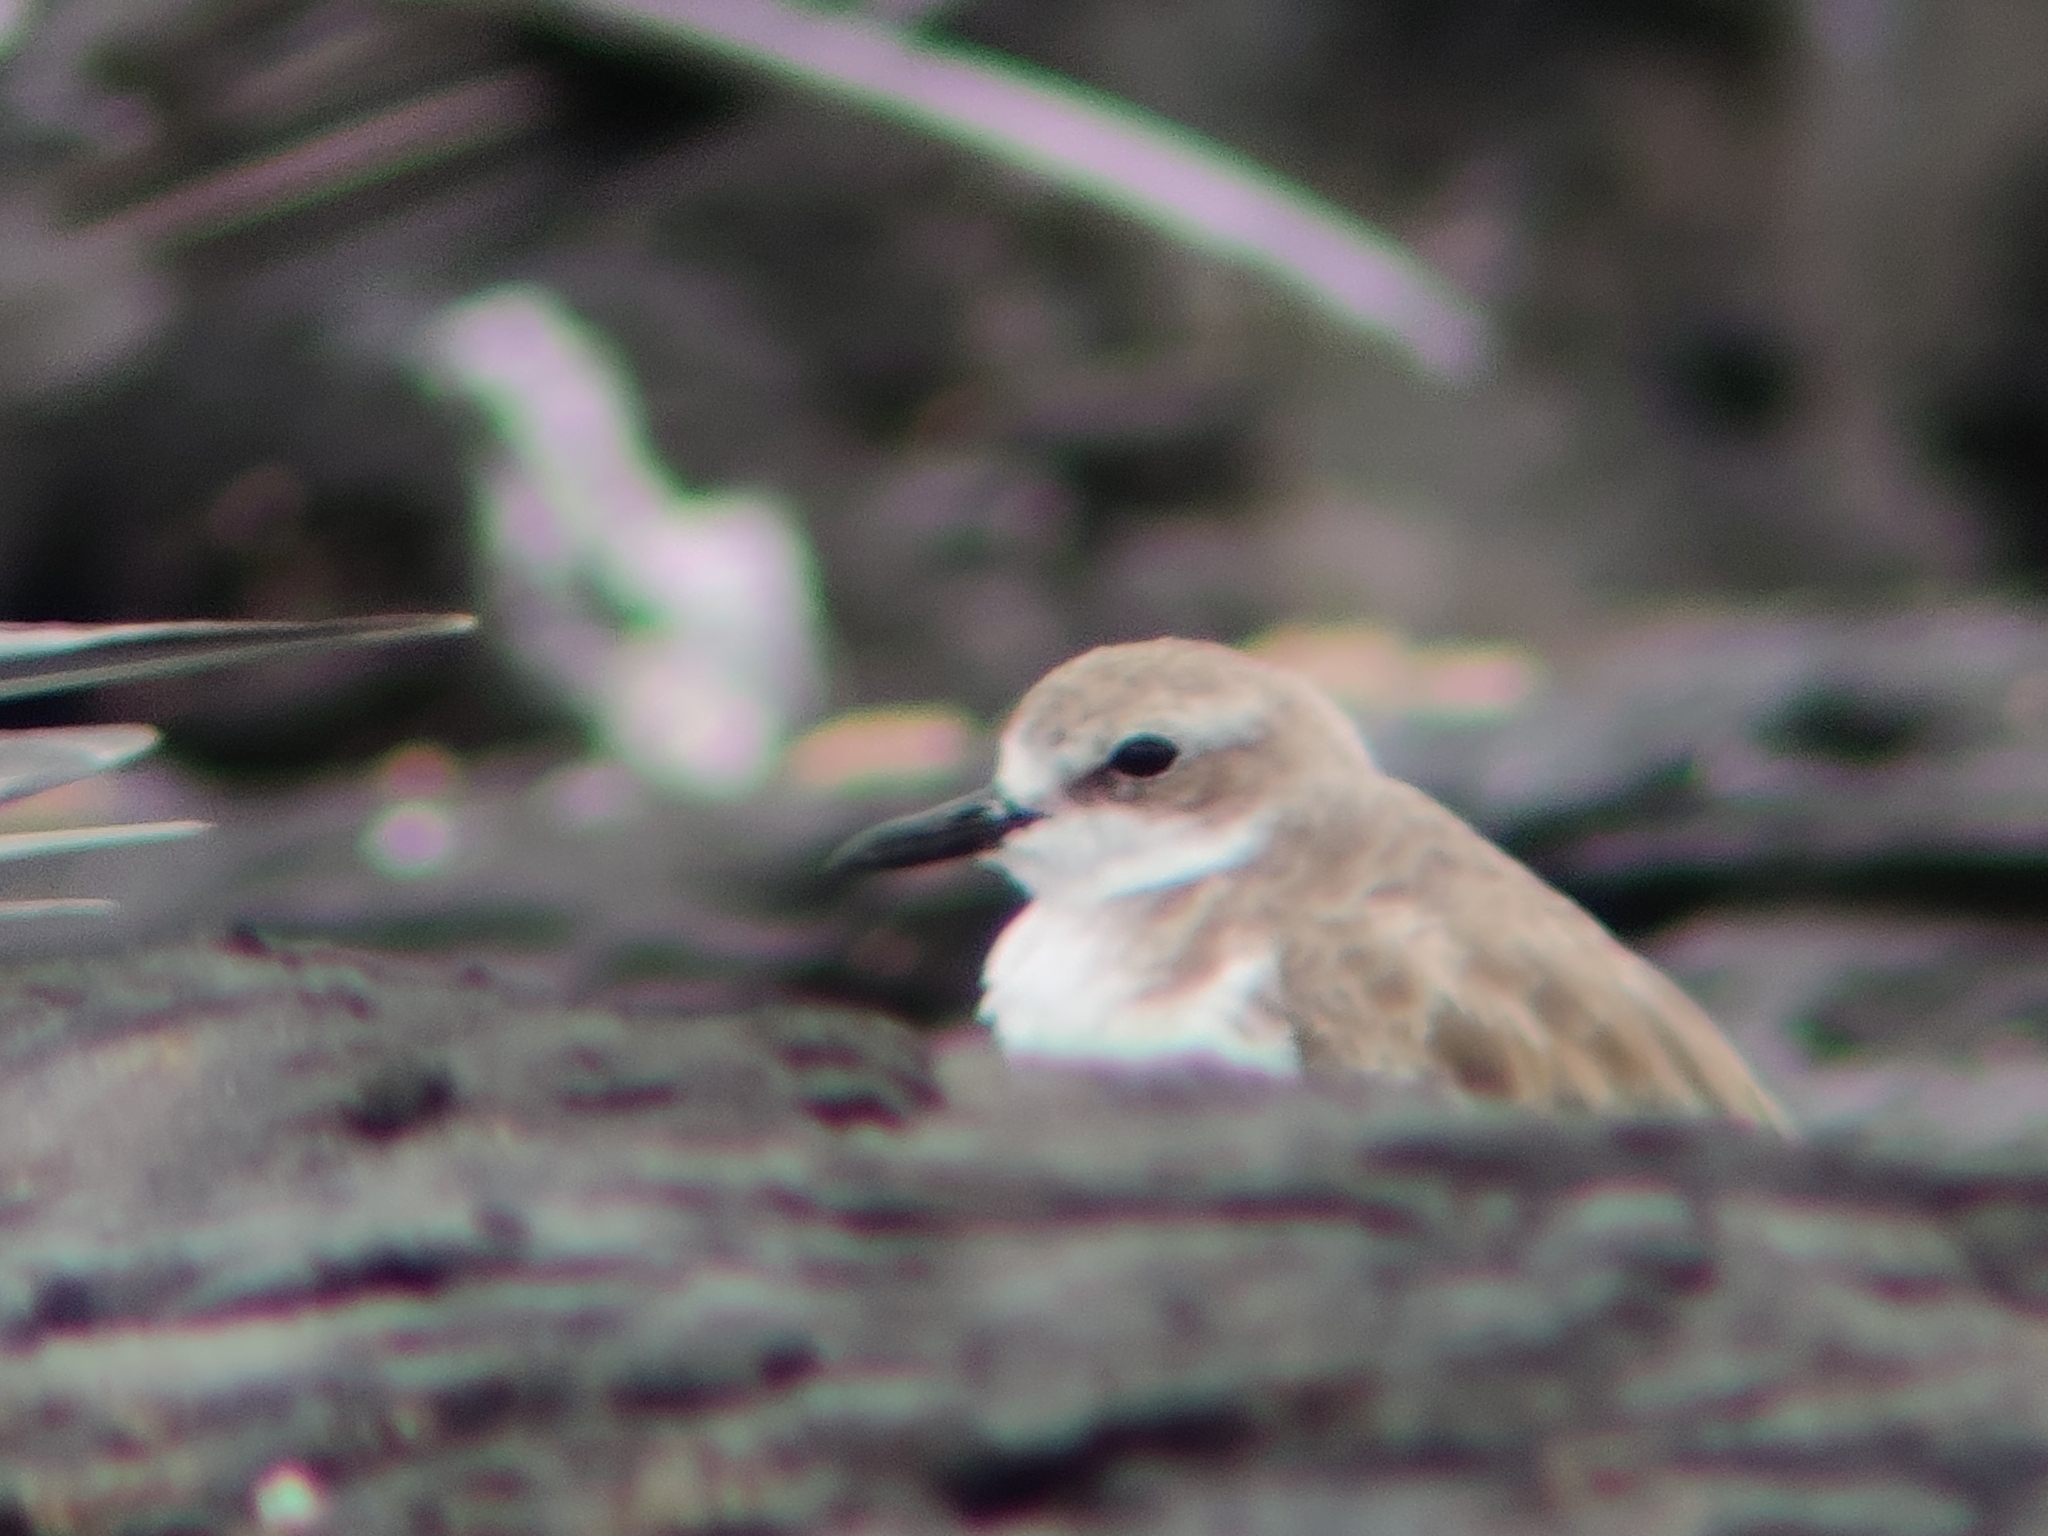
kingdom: Animalia
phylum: Chordata
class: Aves
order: Charadriiformes
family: Charadriidae
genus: Charadrius
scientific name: Charadrius leschenaultii
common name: Greater sand plover
